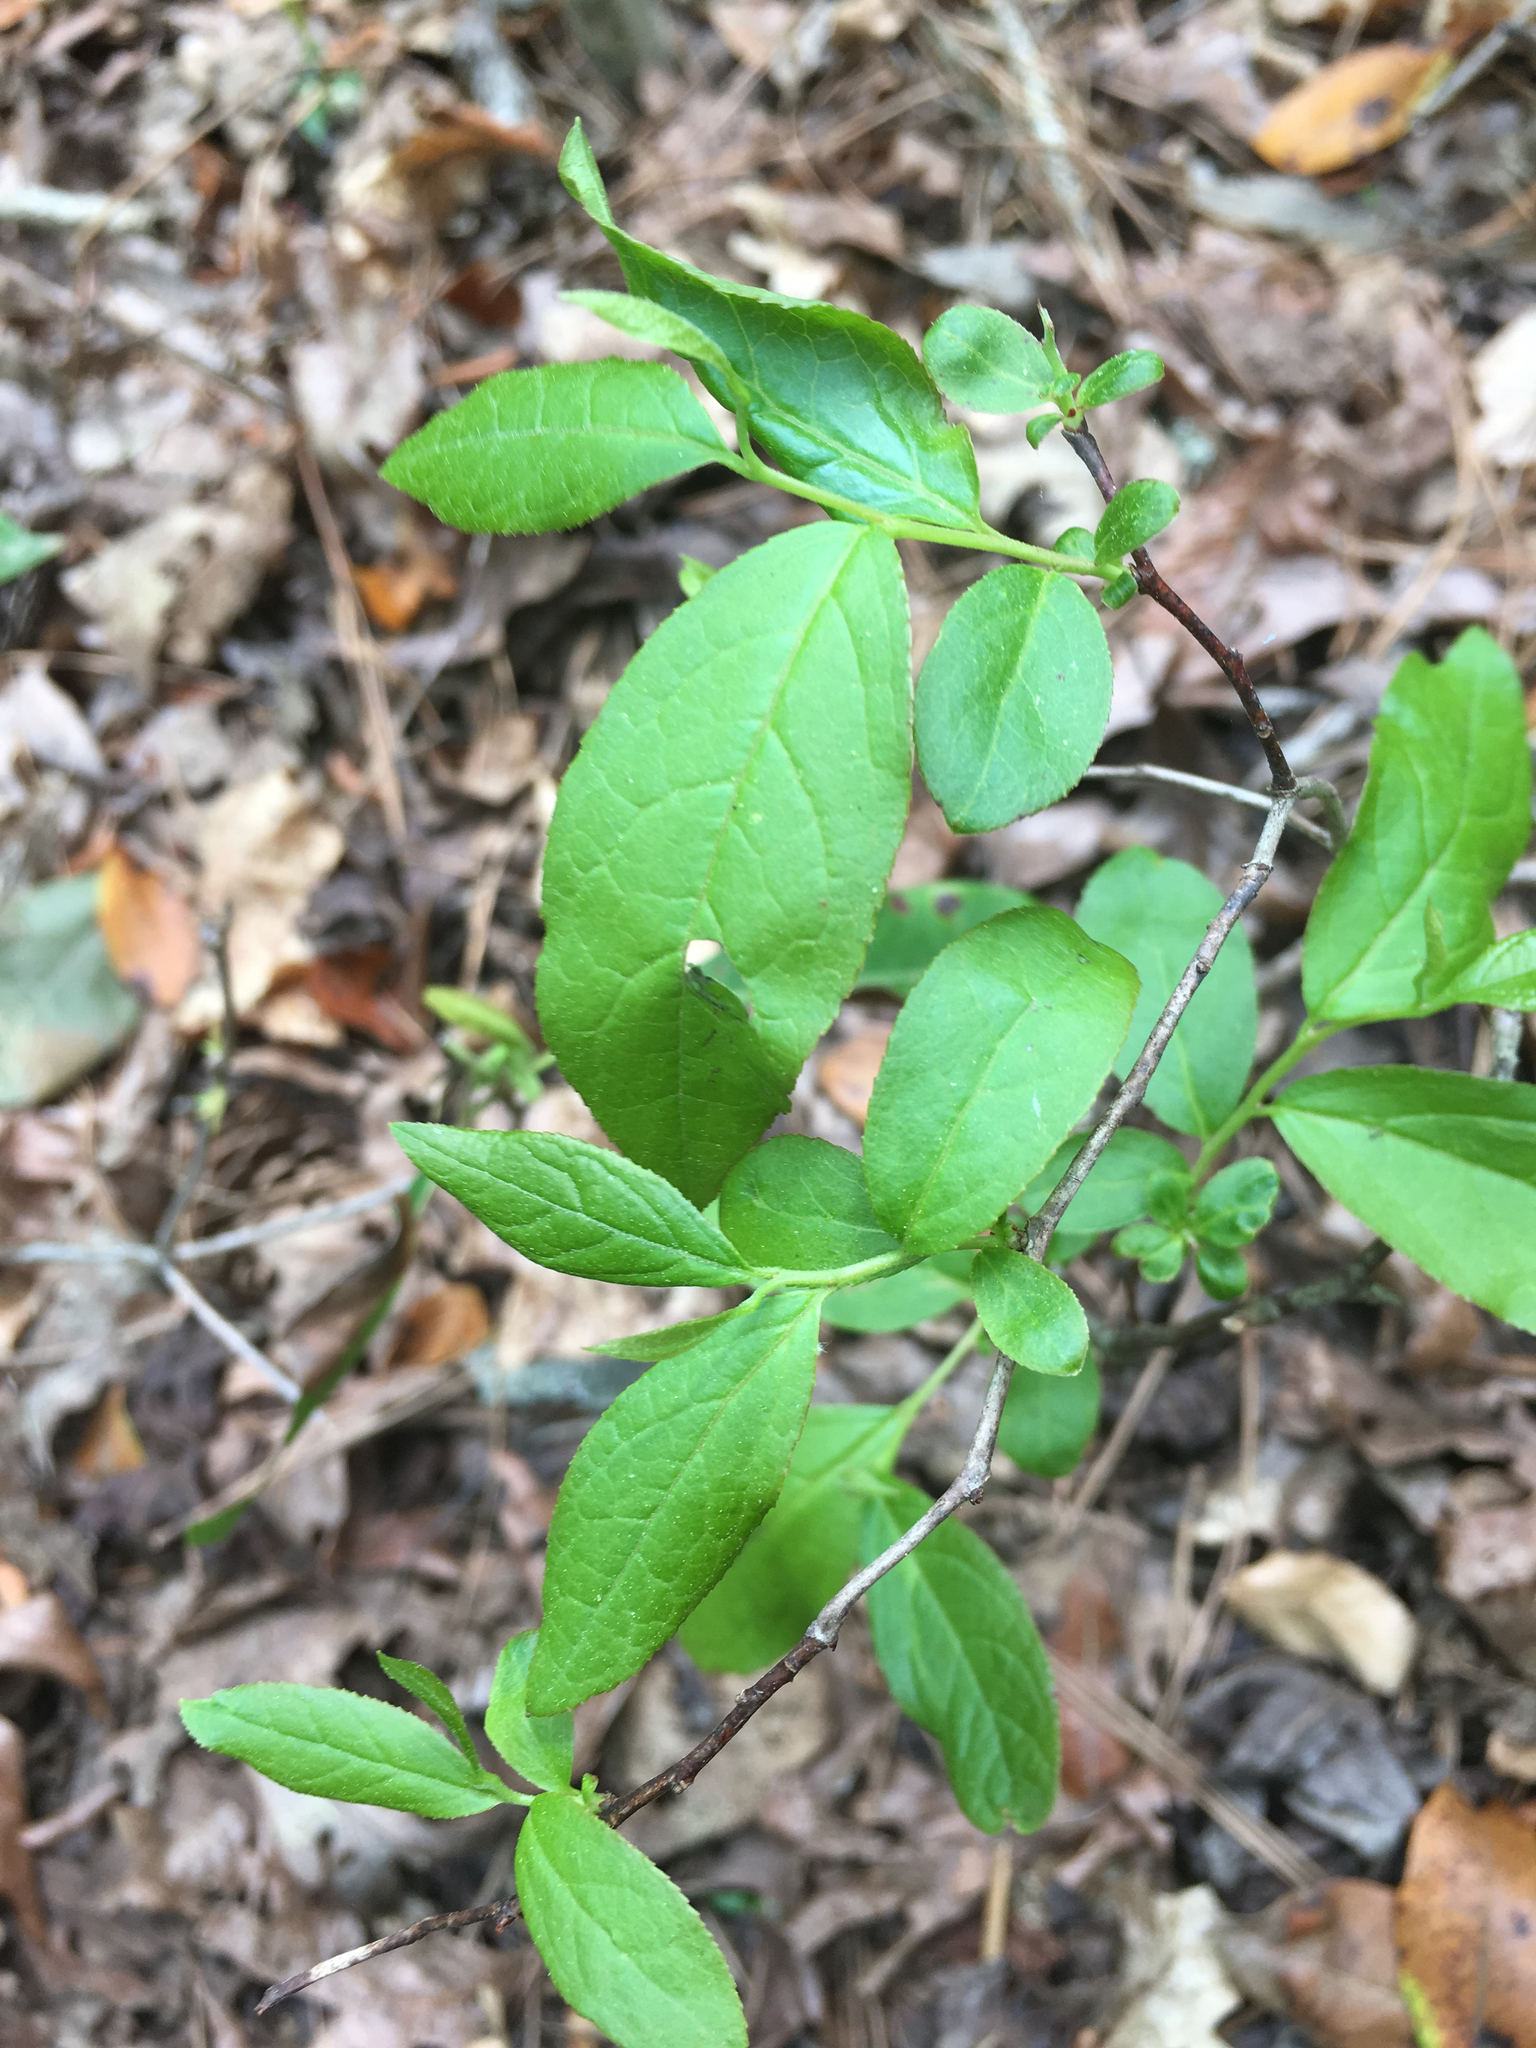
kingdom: Plantae
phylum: Tracheophyta
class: Magnoliopsida
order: Ericales
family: Ericaceae
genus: Eubotrys
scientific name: Eubotrys racemosa
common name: Fetterbush
